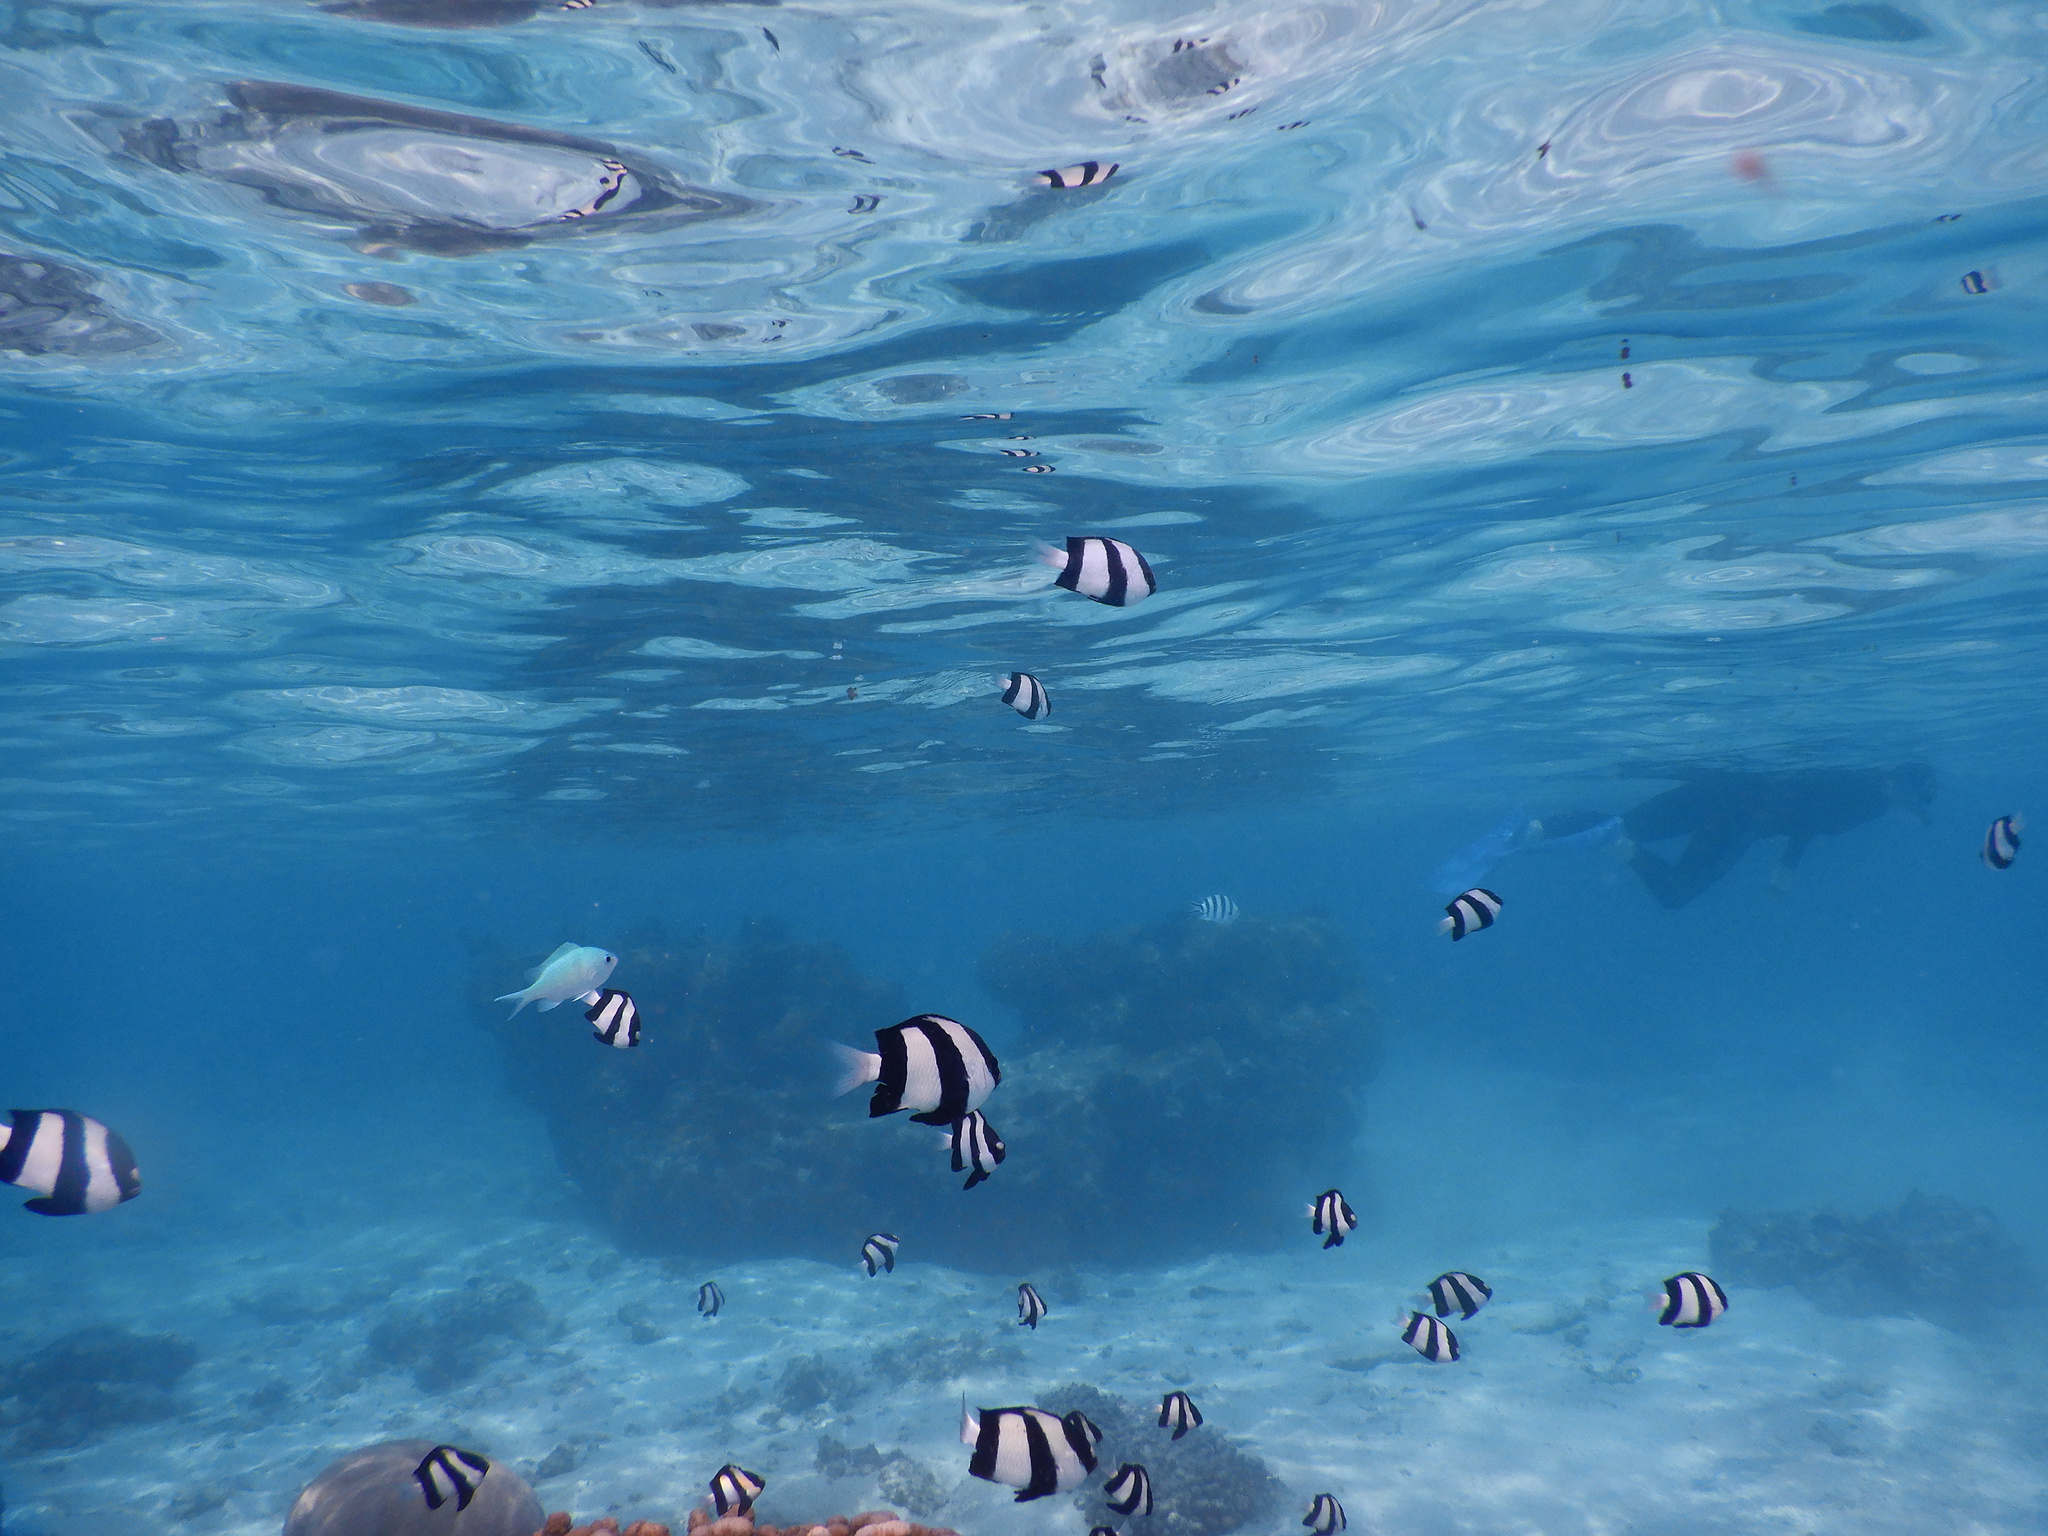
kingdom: Animalia
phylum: Chordata
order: Perciformes
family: Pomacentridae
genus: Dascyllus
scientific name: Dascyllus aruanus
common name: Humbug dascyllus
